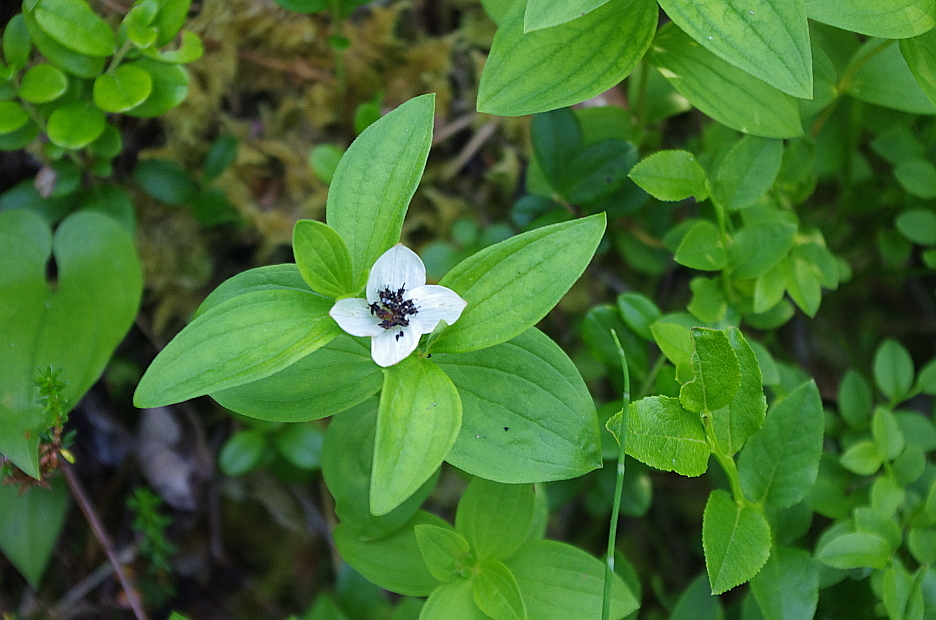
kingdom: Plantae
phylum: Tracheophyta
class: Magnoliopsida
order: Cornales
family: Cornaceae
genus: Cornus
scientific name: Cornus suecica
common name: Dwarf cornel
